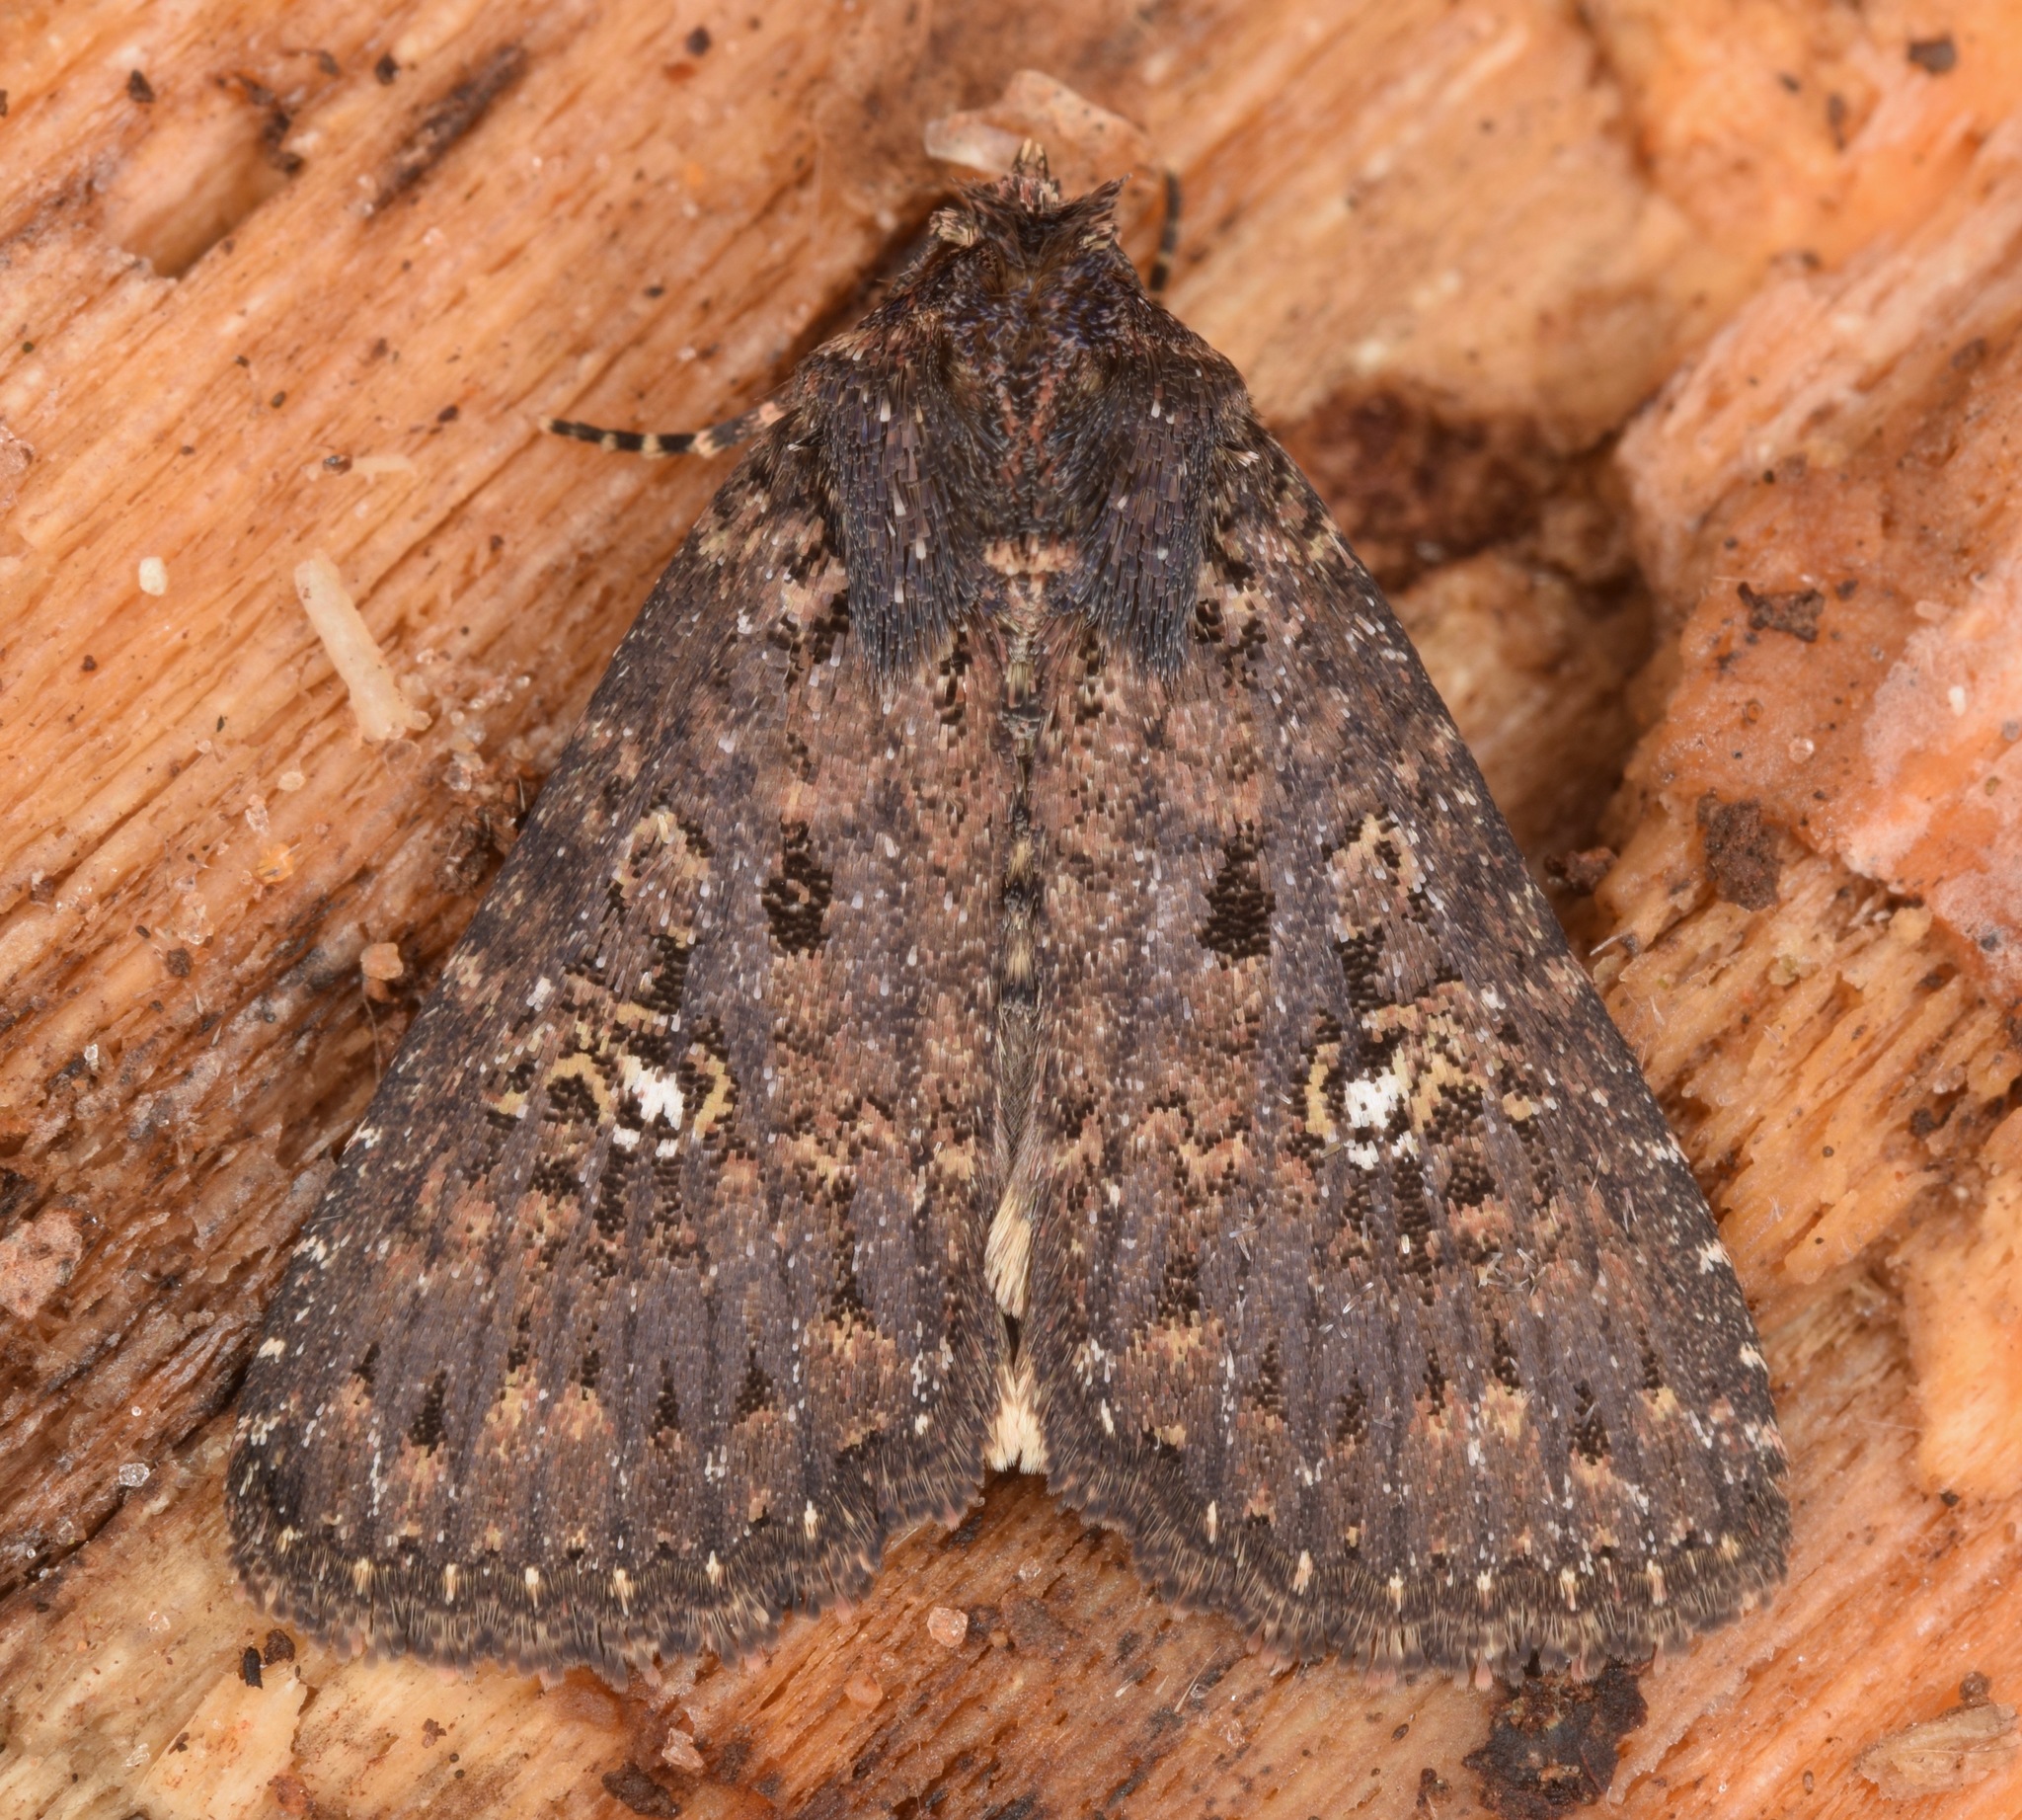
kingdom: Animalia
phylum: Arthropoda
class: Insecta
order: Lepidoptera
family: Noctuidae
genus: Condica
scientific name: Condica vecors
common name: Dusky groundling
